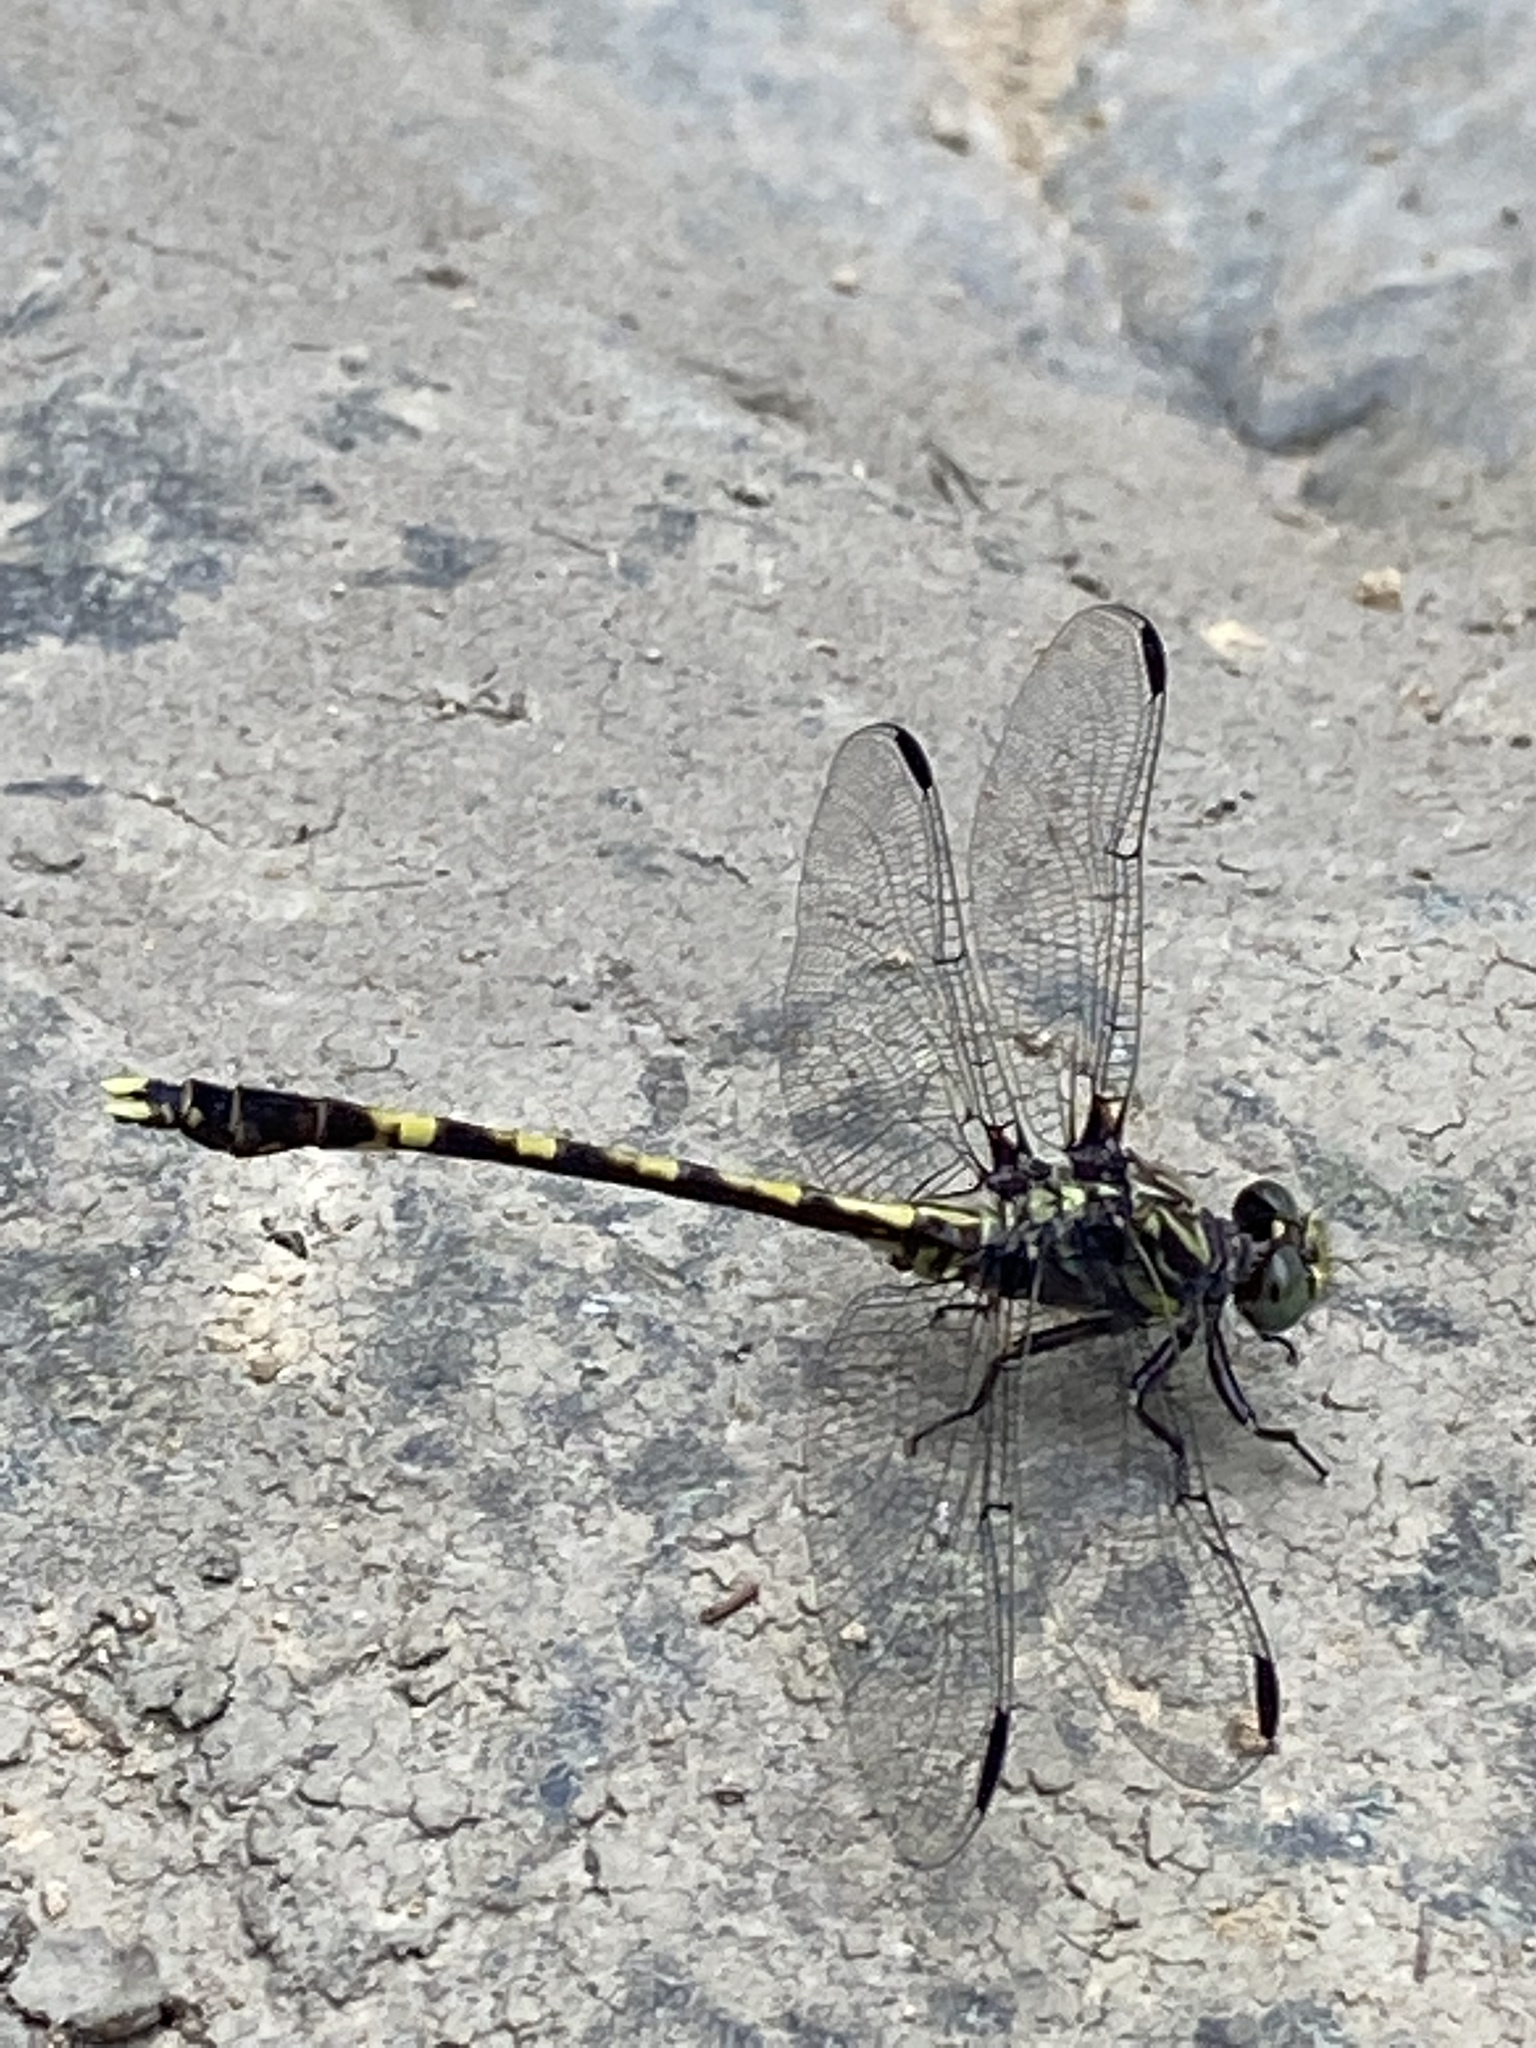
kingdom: Animalia
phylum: Arthropoda
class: Insecta
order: Odonata
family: Gomphidae
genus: Progomphus
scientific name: Progomphus obscurus
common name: Common sanddragon
